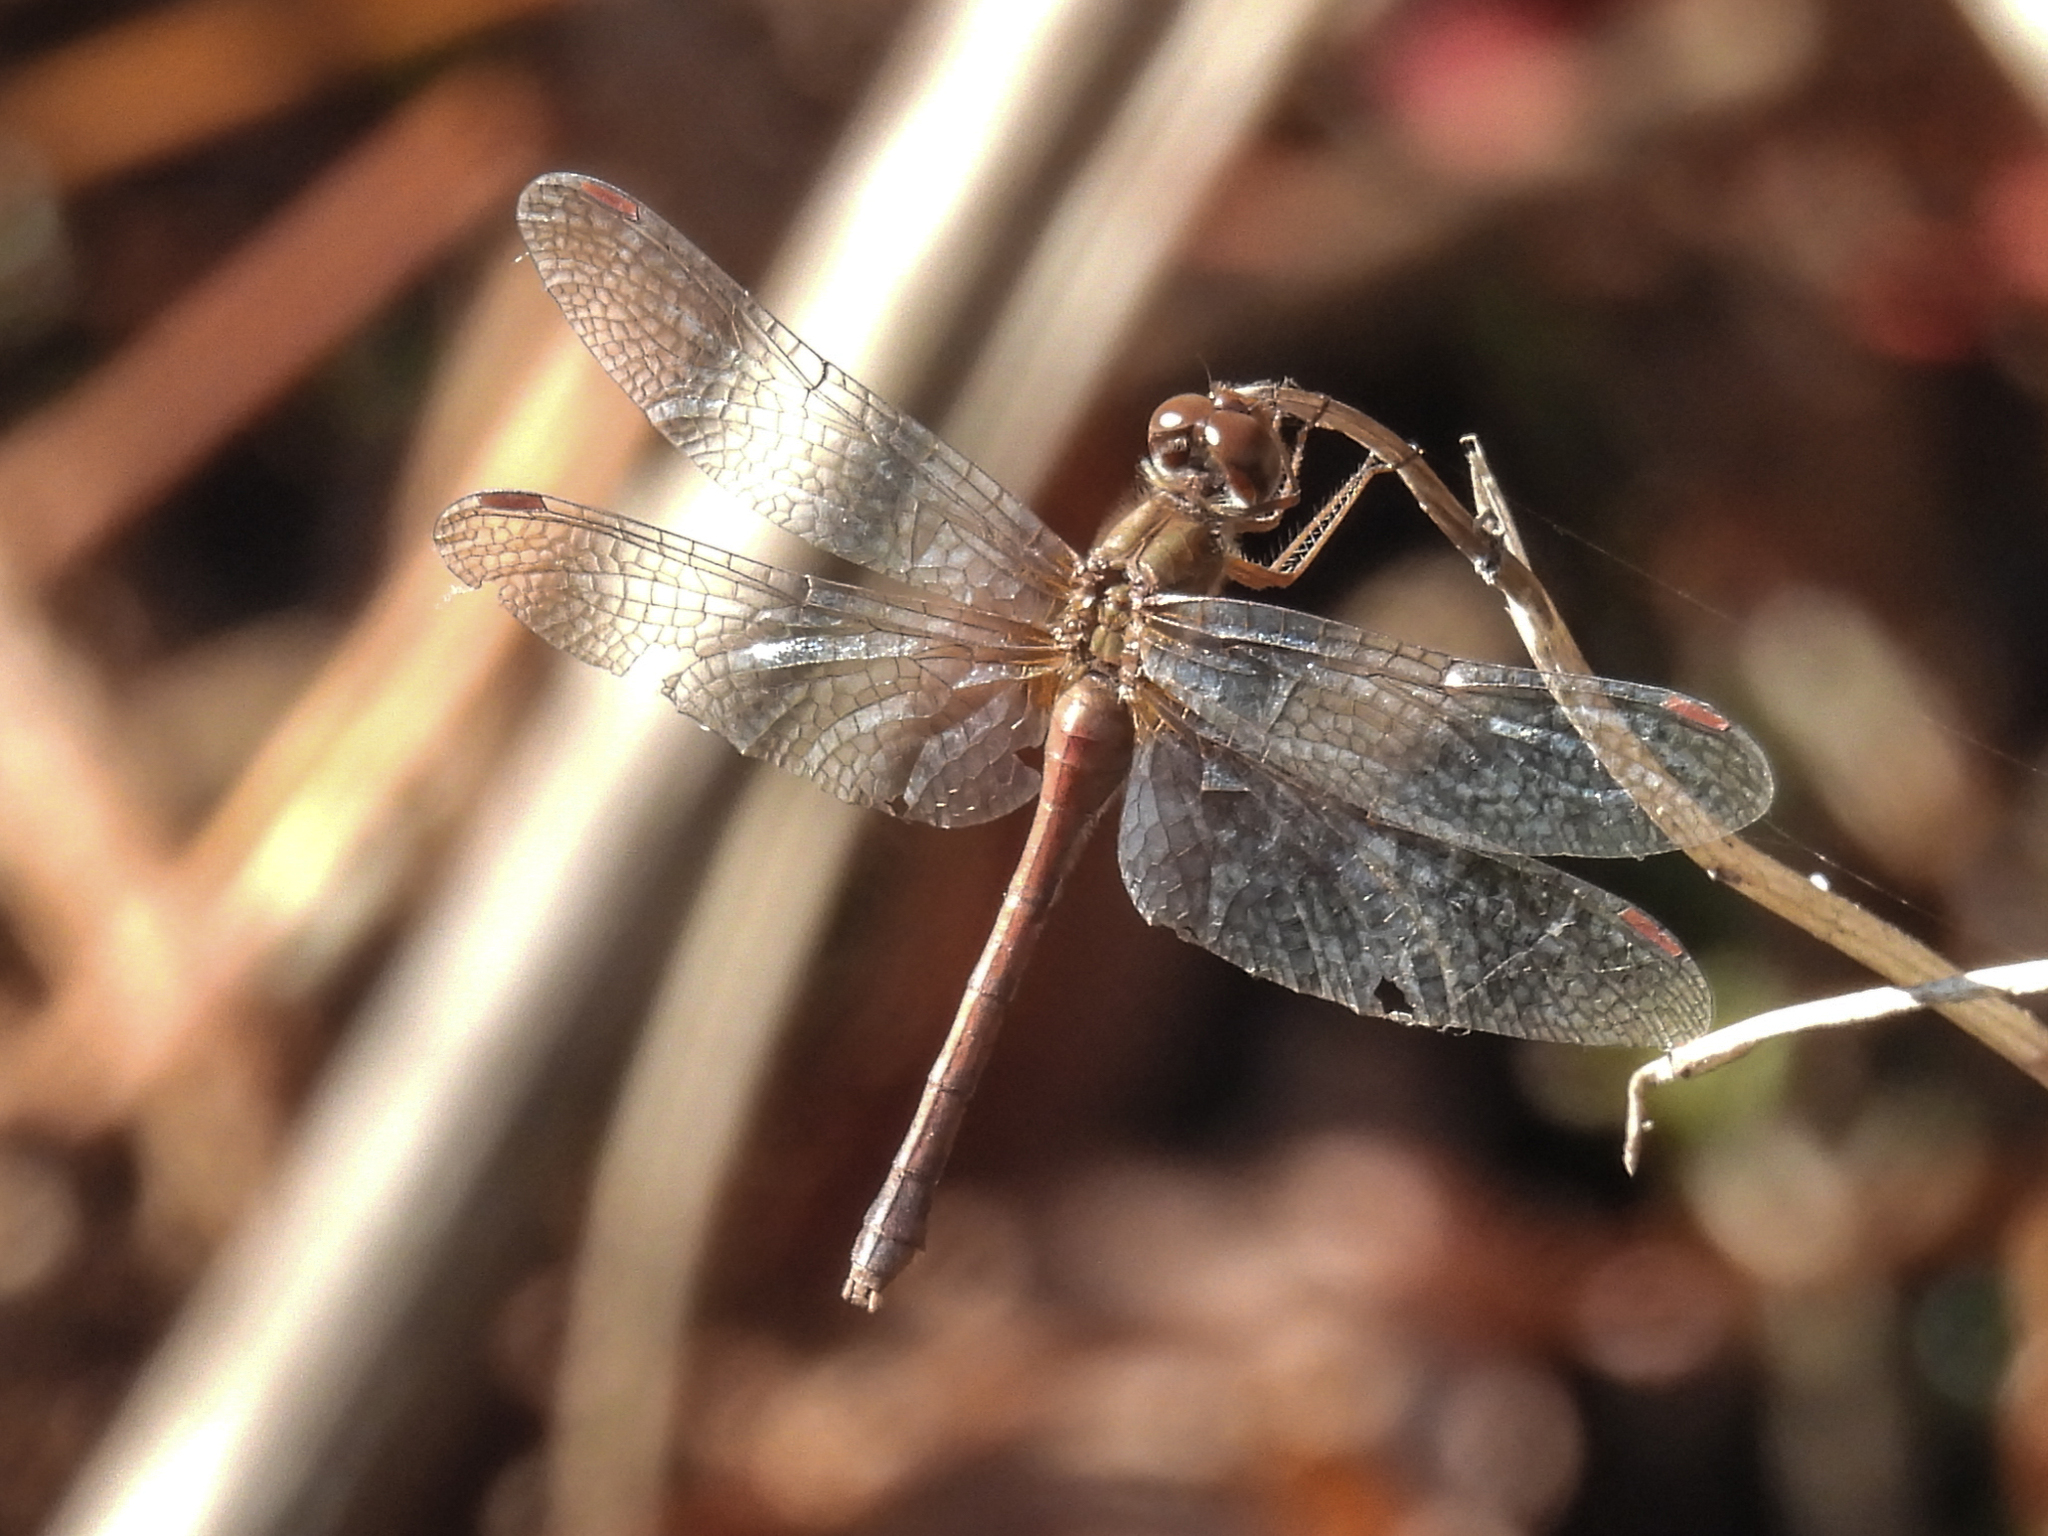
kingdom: Animalia
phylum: Arthropoda
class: Insecta
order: Odonata
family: Libellulidae
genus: Sympetrum
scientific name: Sympetrum vicinum
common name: Autumn meadowhawk
